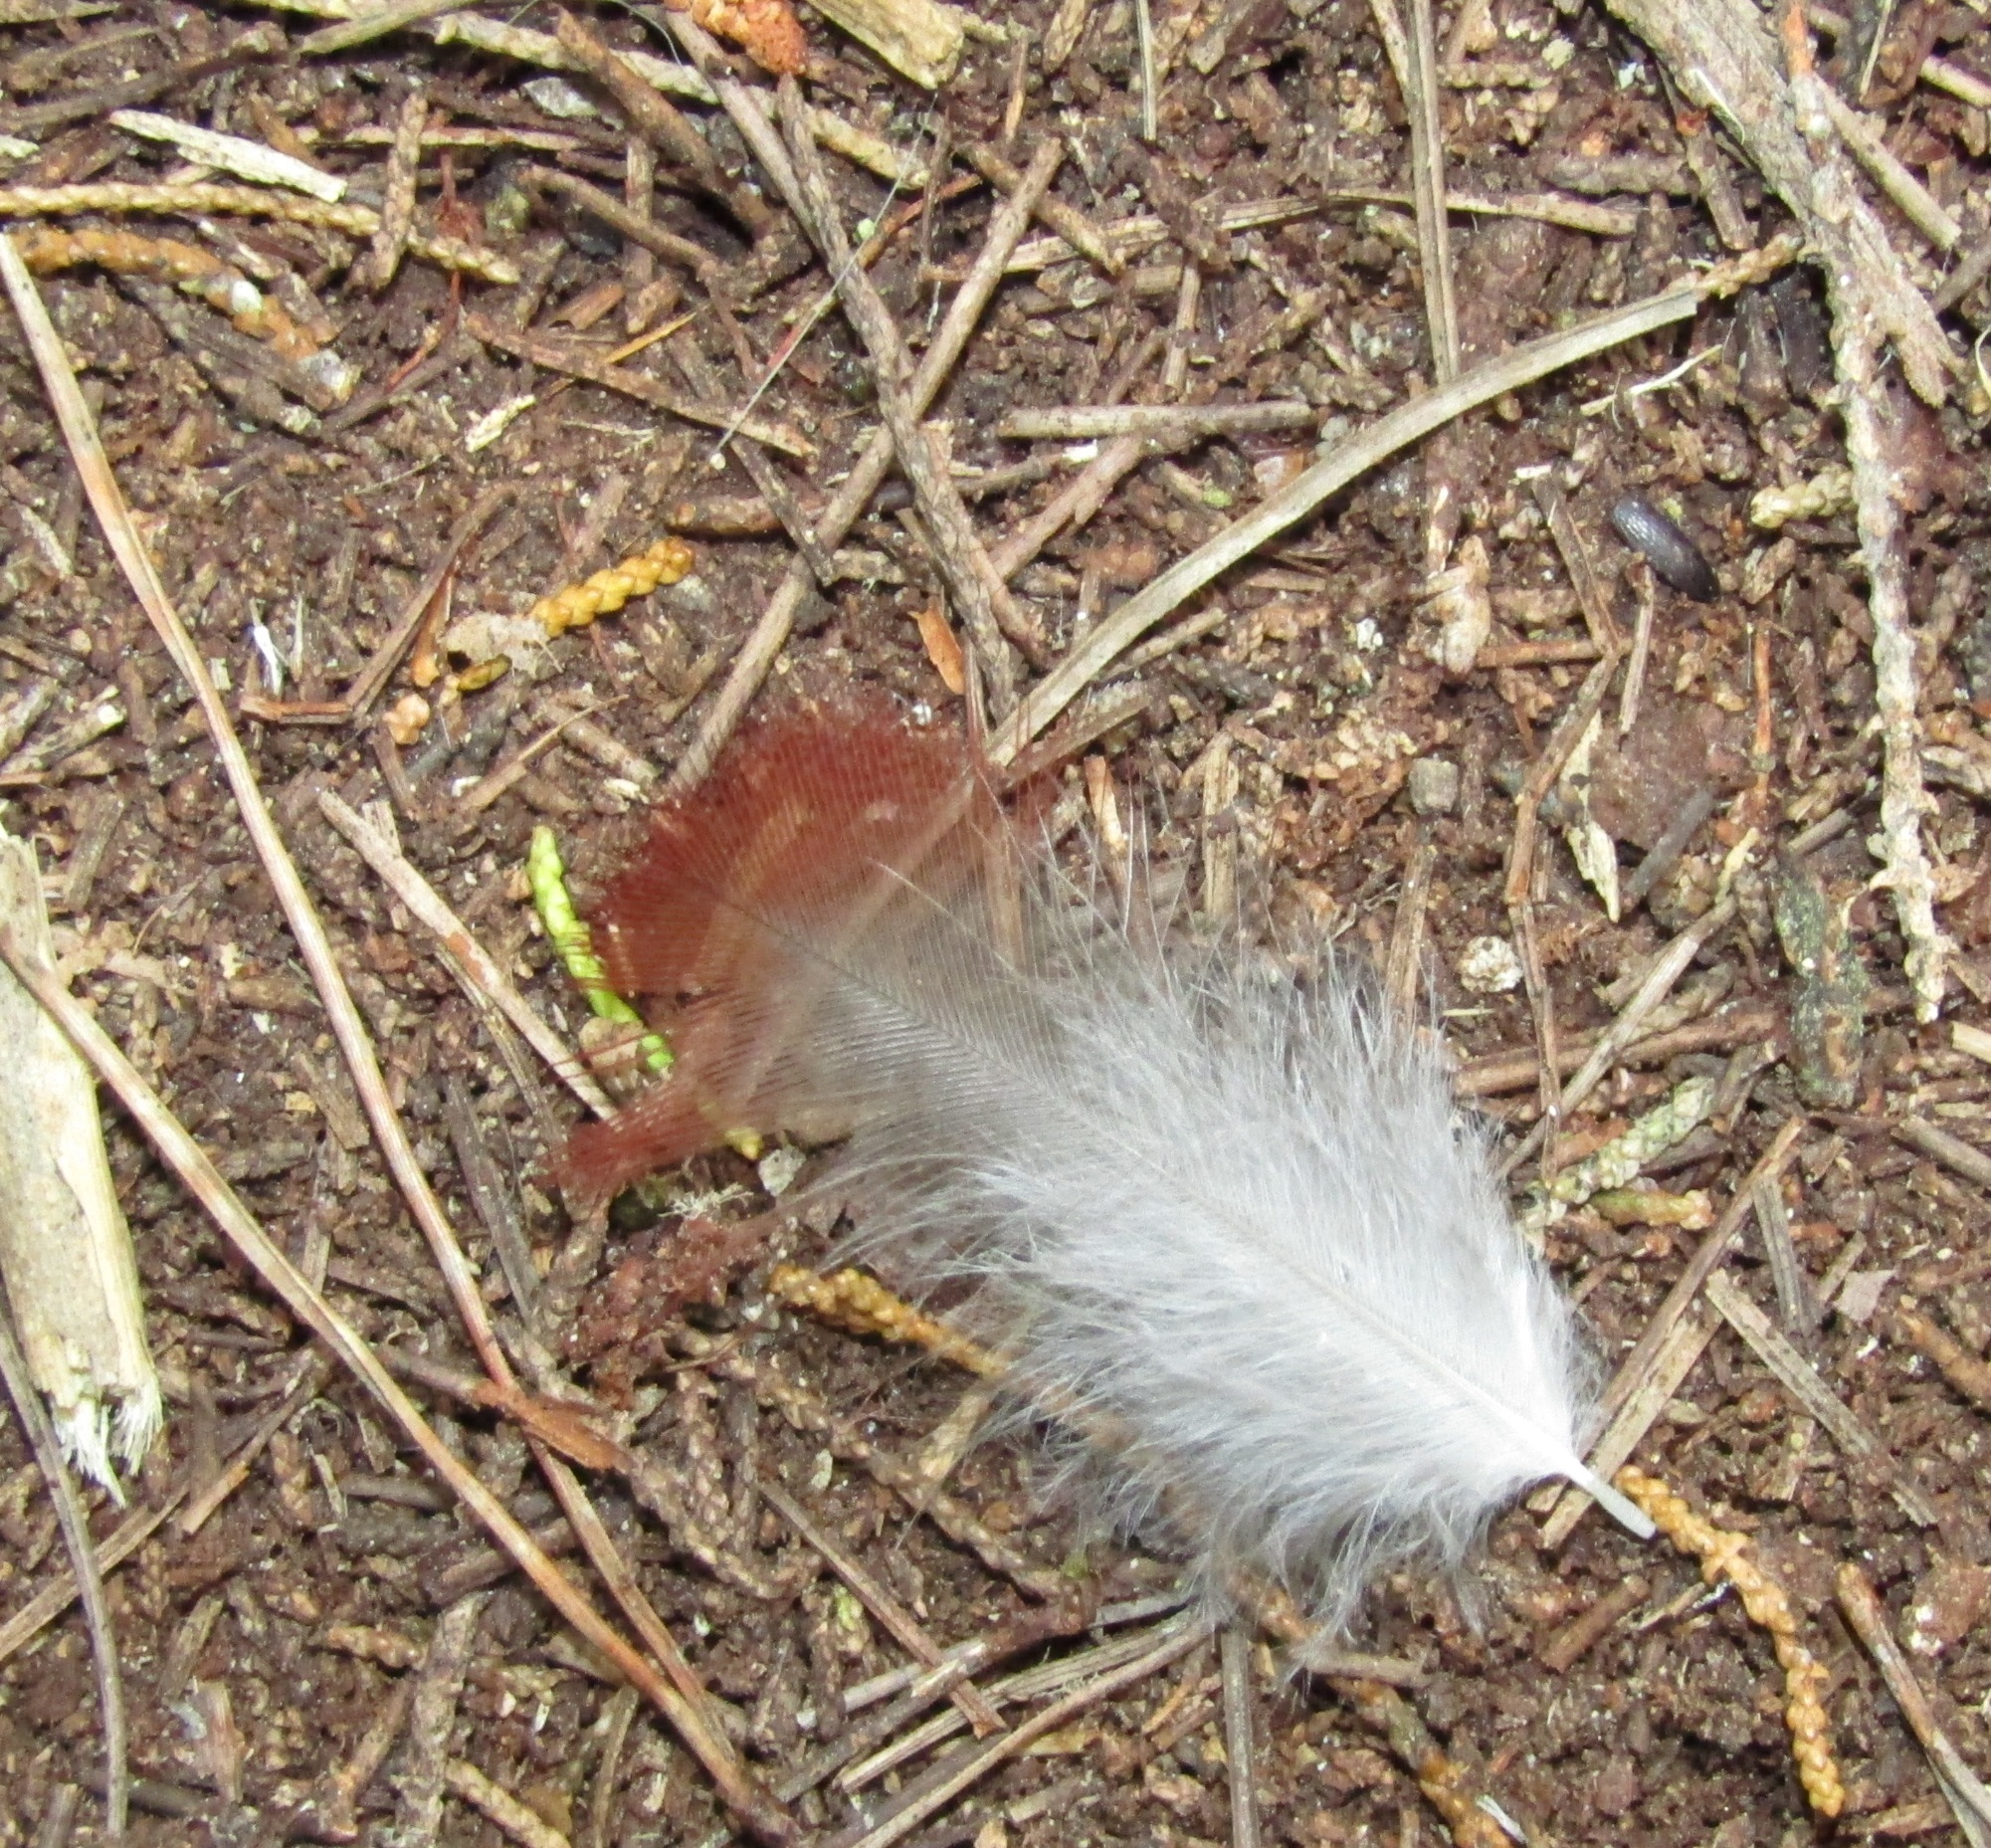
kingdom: Animalia
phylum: Chordata
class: Aves
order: Psittaciformes
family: Psittacidae
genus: Nestor
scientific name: Nestor meridionalis
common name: New zealand kaka
